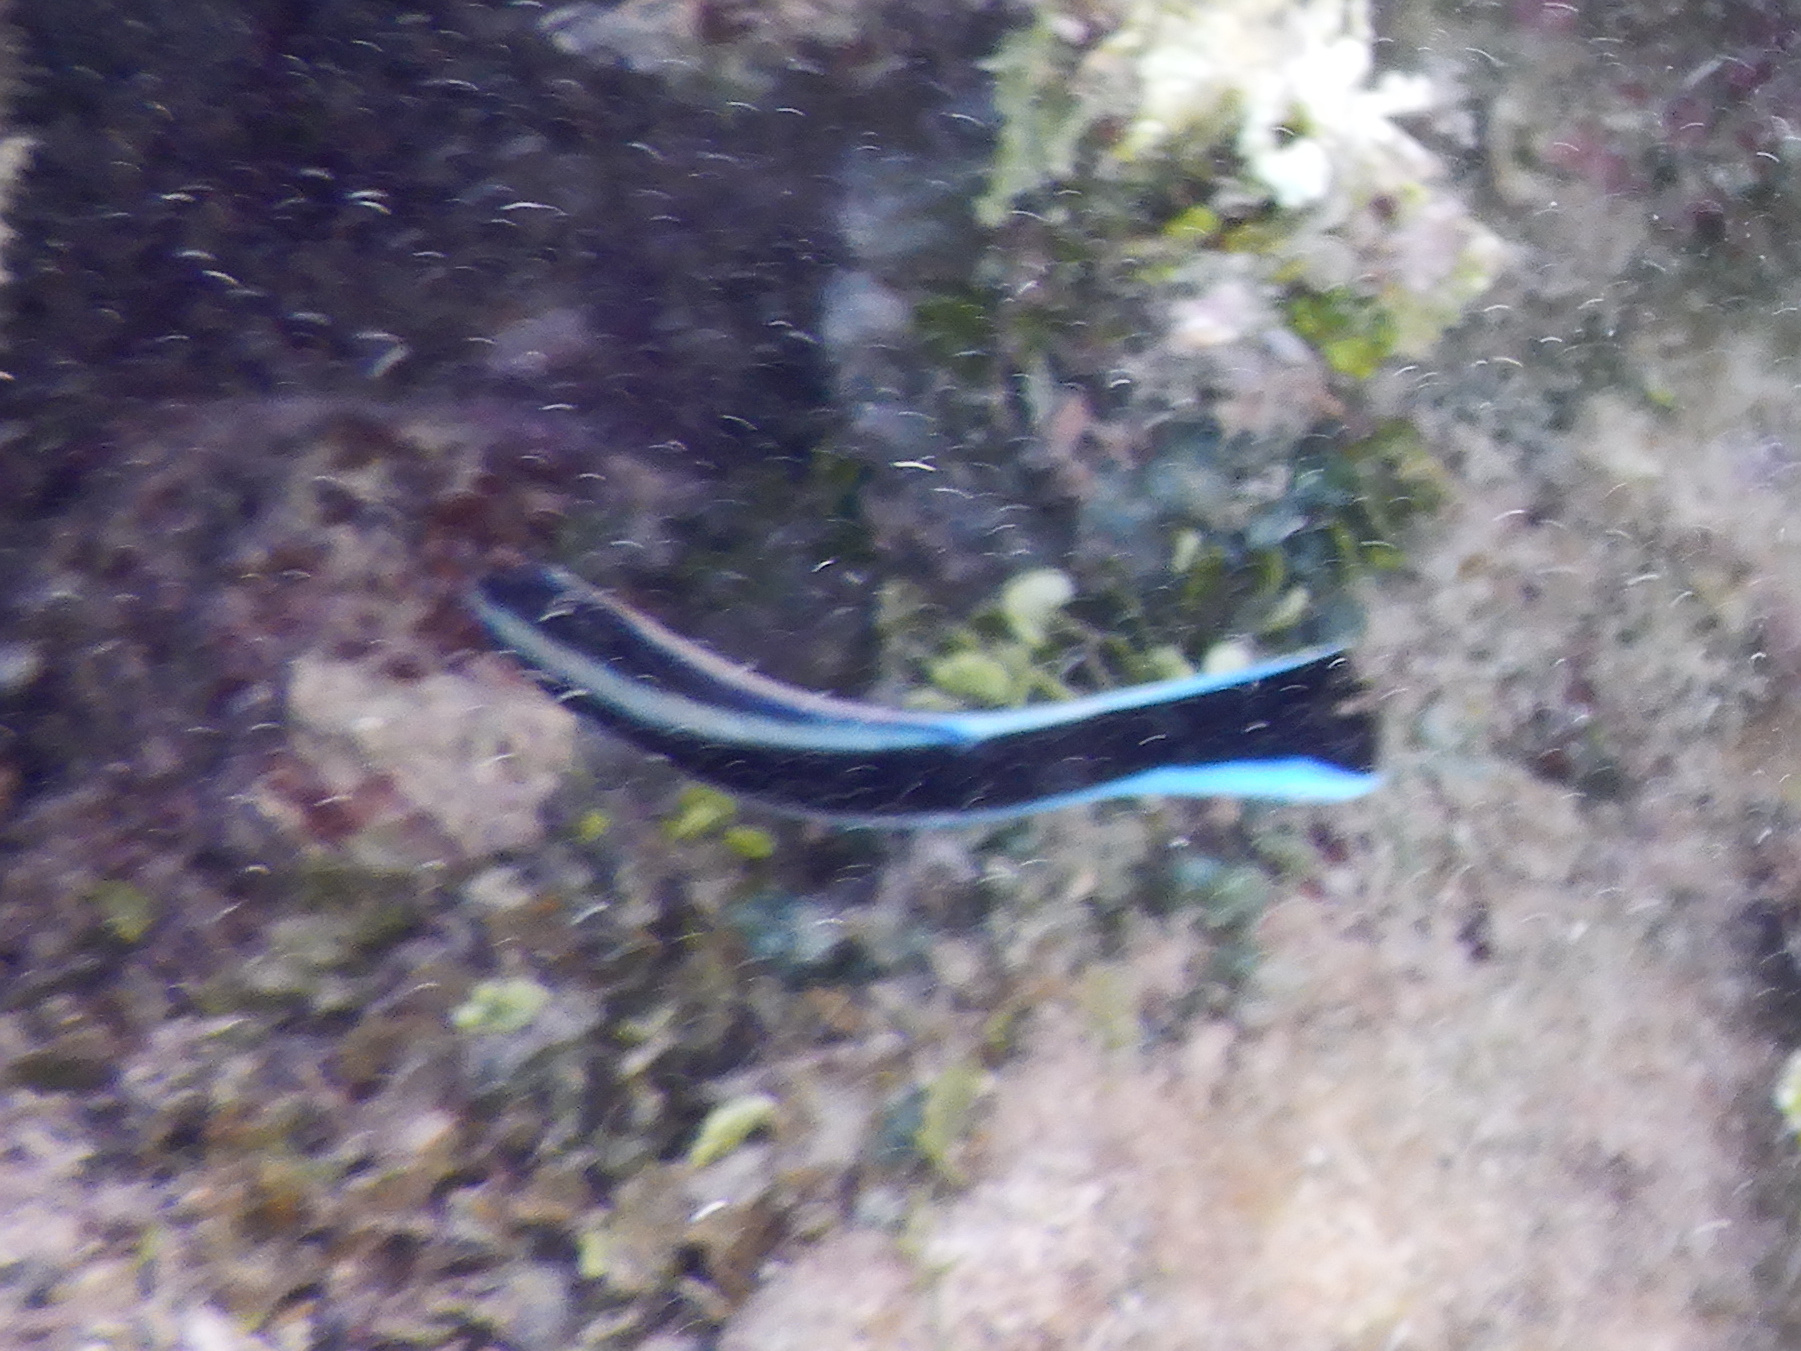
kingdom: Animalia
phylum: Chordata
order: Perciformes
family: Labridae
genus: Labroides
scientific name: Labroides dimidiatus
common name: Blue diesel wrasse
